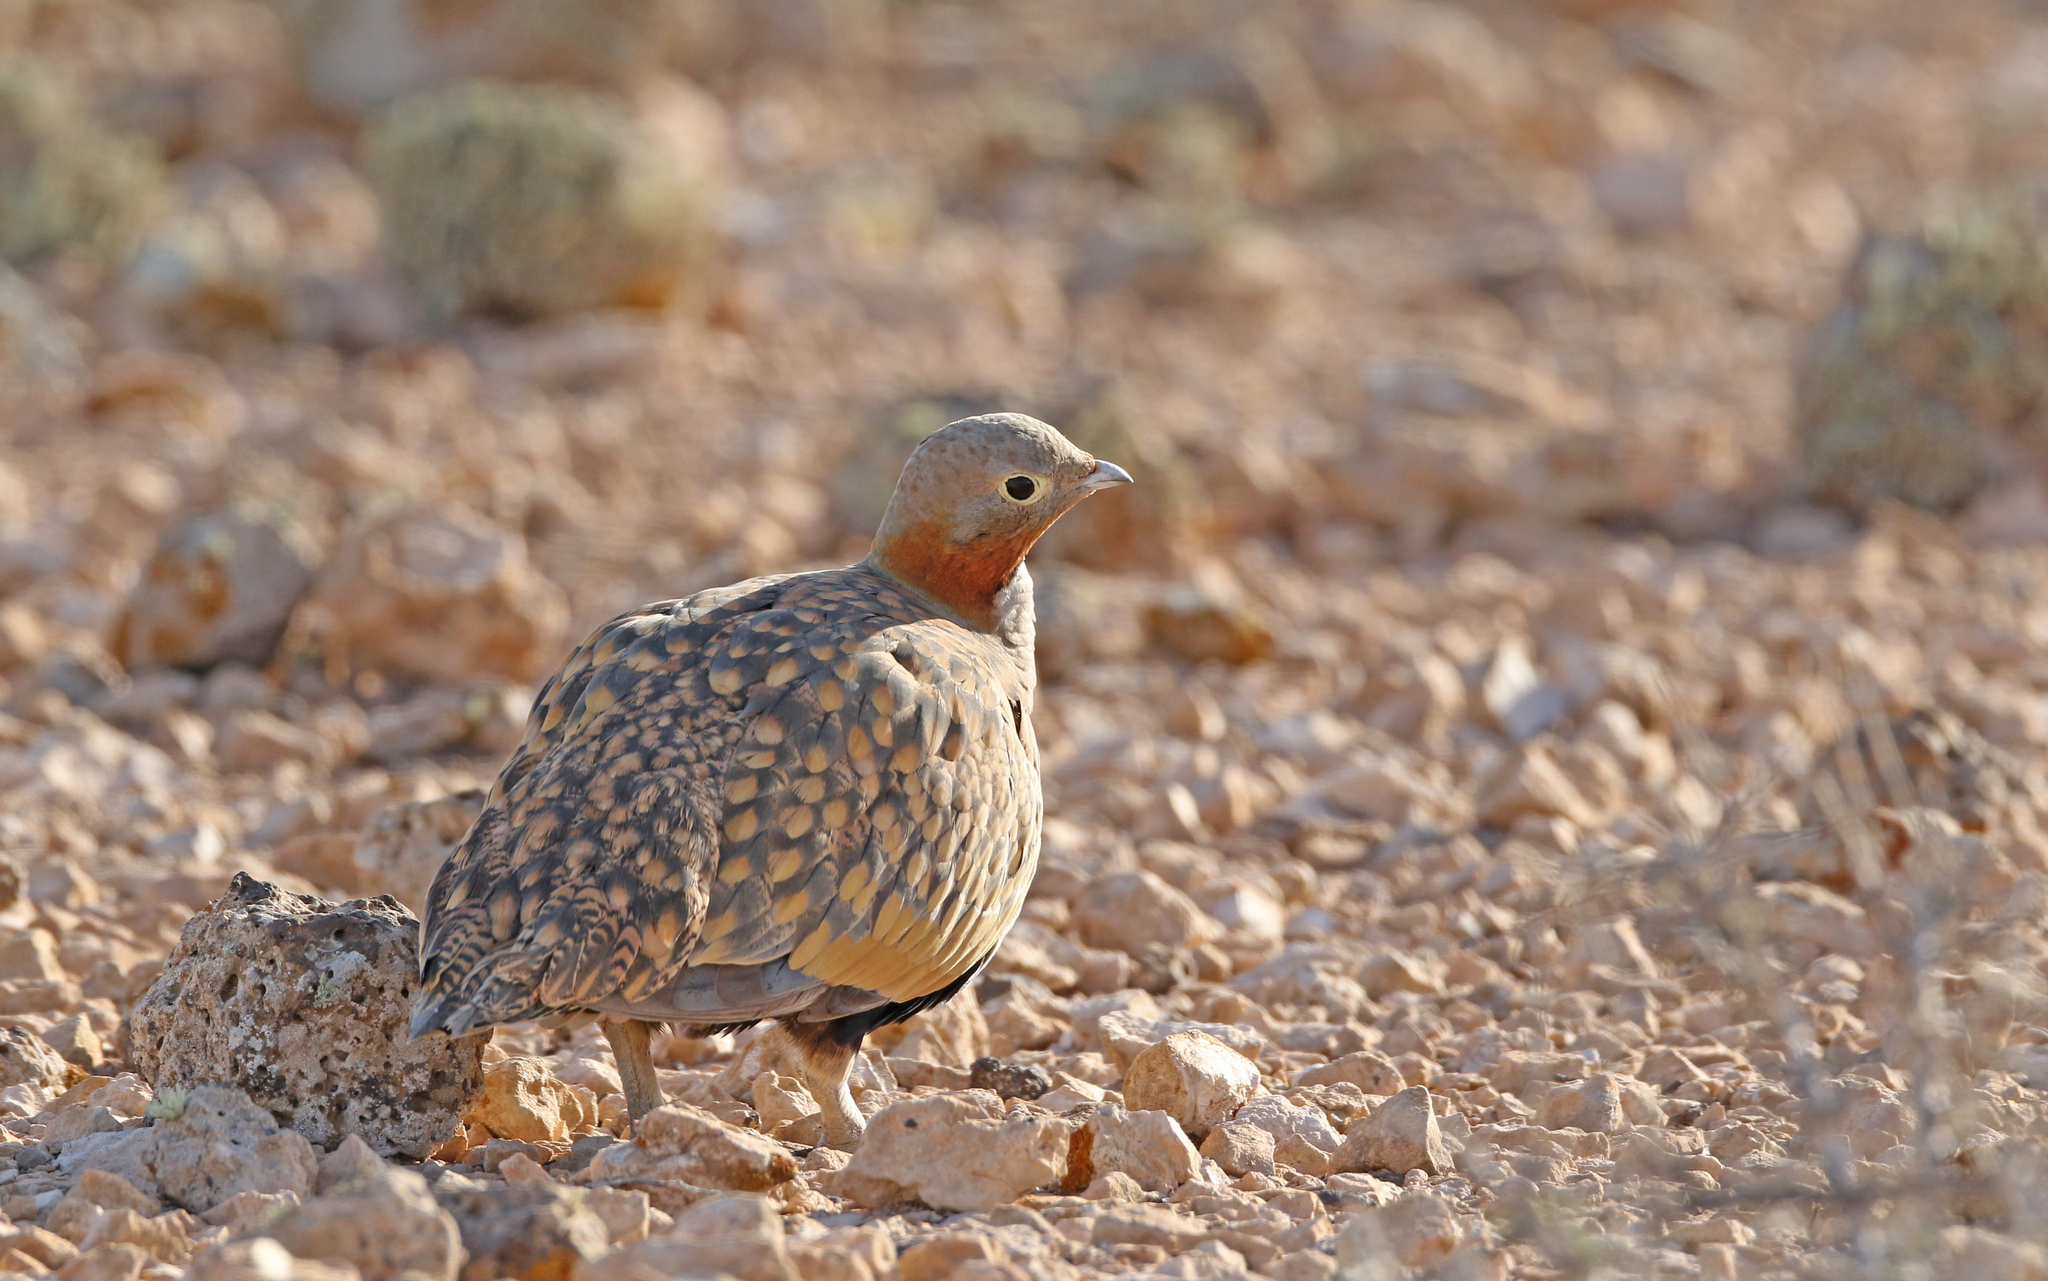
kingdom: Animalia
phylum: Chordata
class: Aves
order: Pteroclidiformes
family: Pteroclididae
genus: Pterocles
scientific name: Pterocles orientalis
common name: Black-bellied sandgrouse
